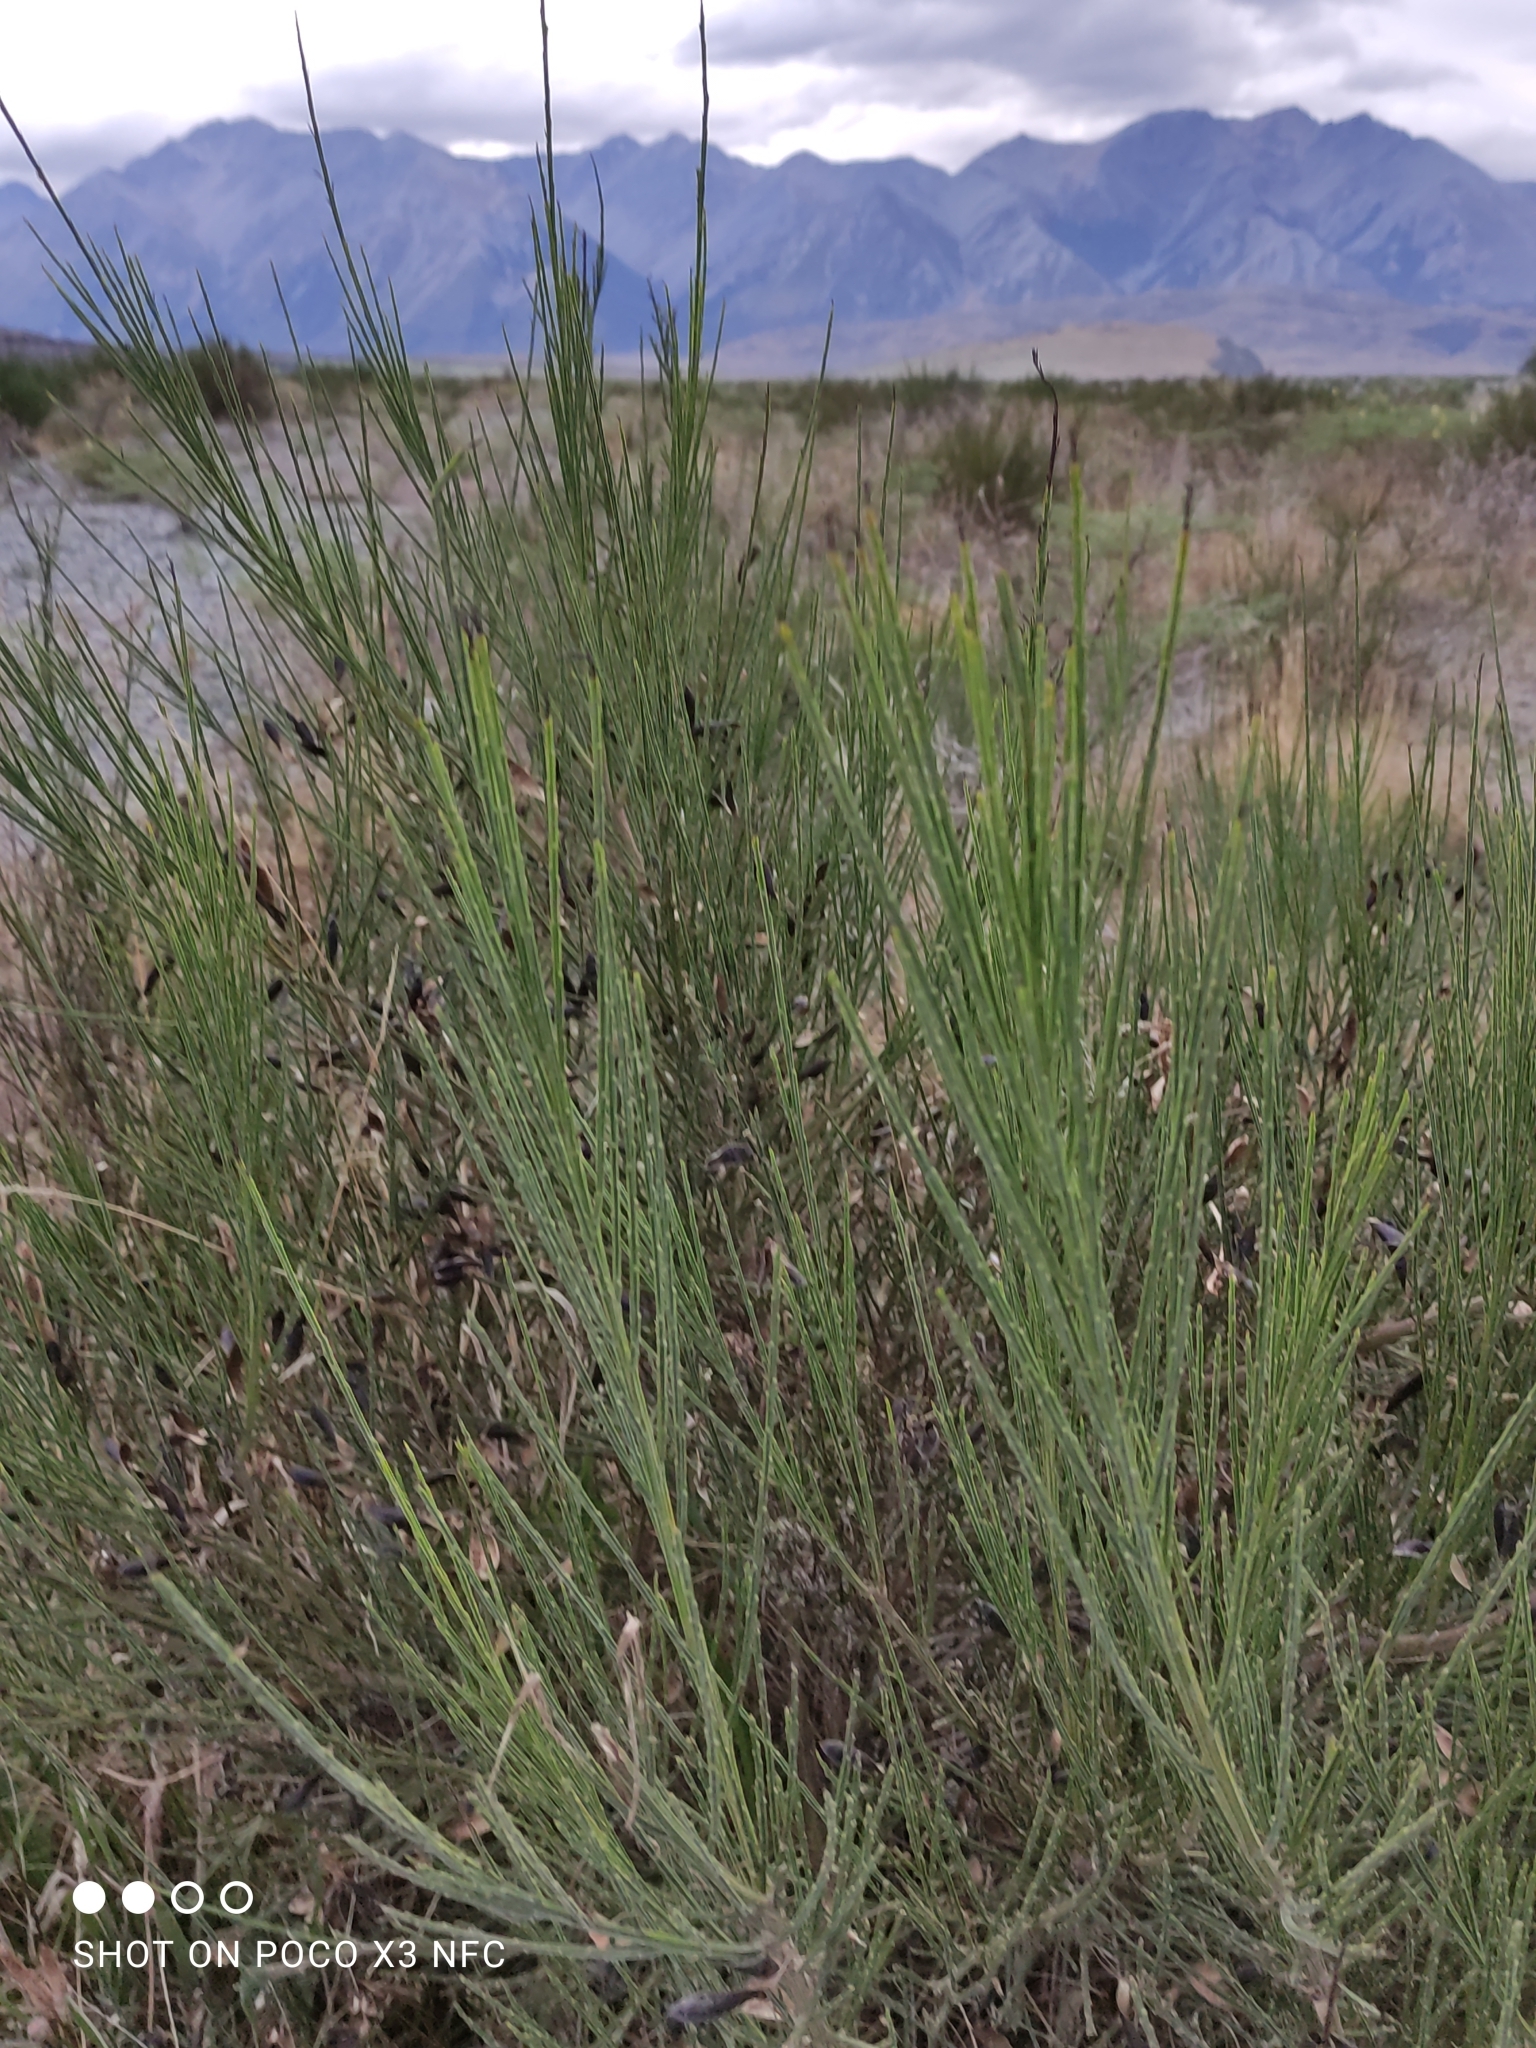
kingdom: Plantae
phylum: Tracheophyta
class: Magnoliopsida
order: Fabales
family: Fabaceae
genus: Cytisus
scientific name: Cytisus scoparius
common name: Scotch broom
